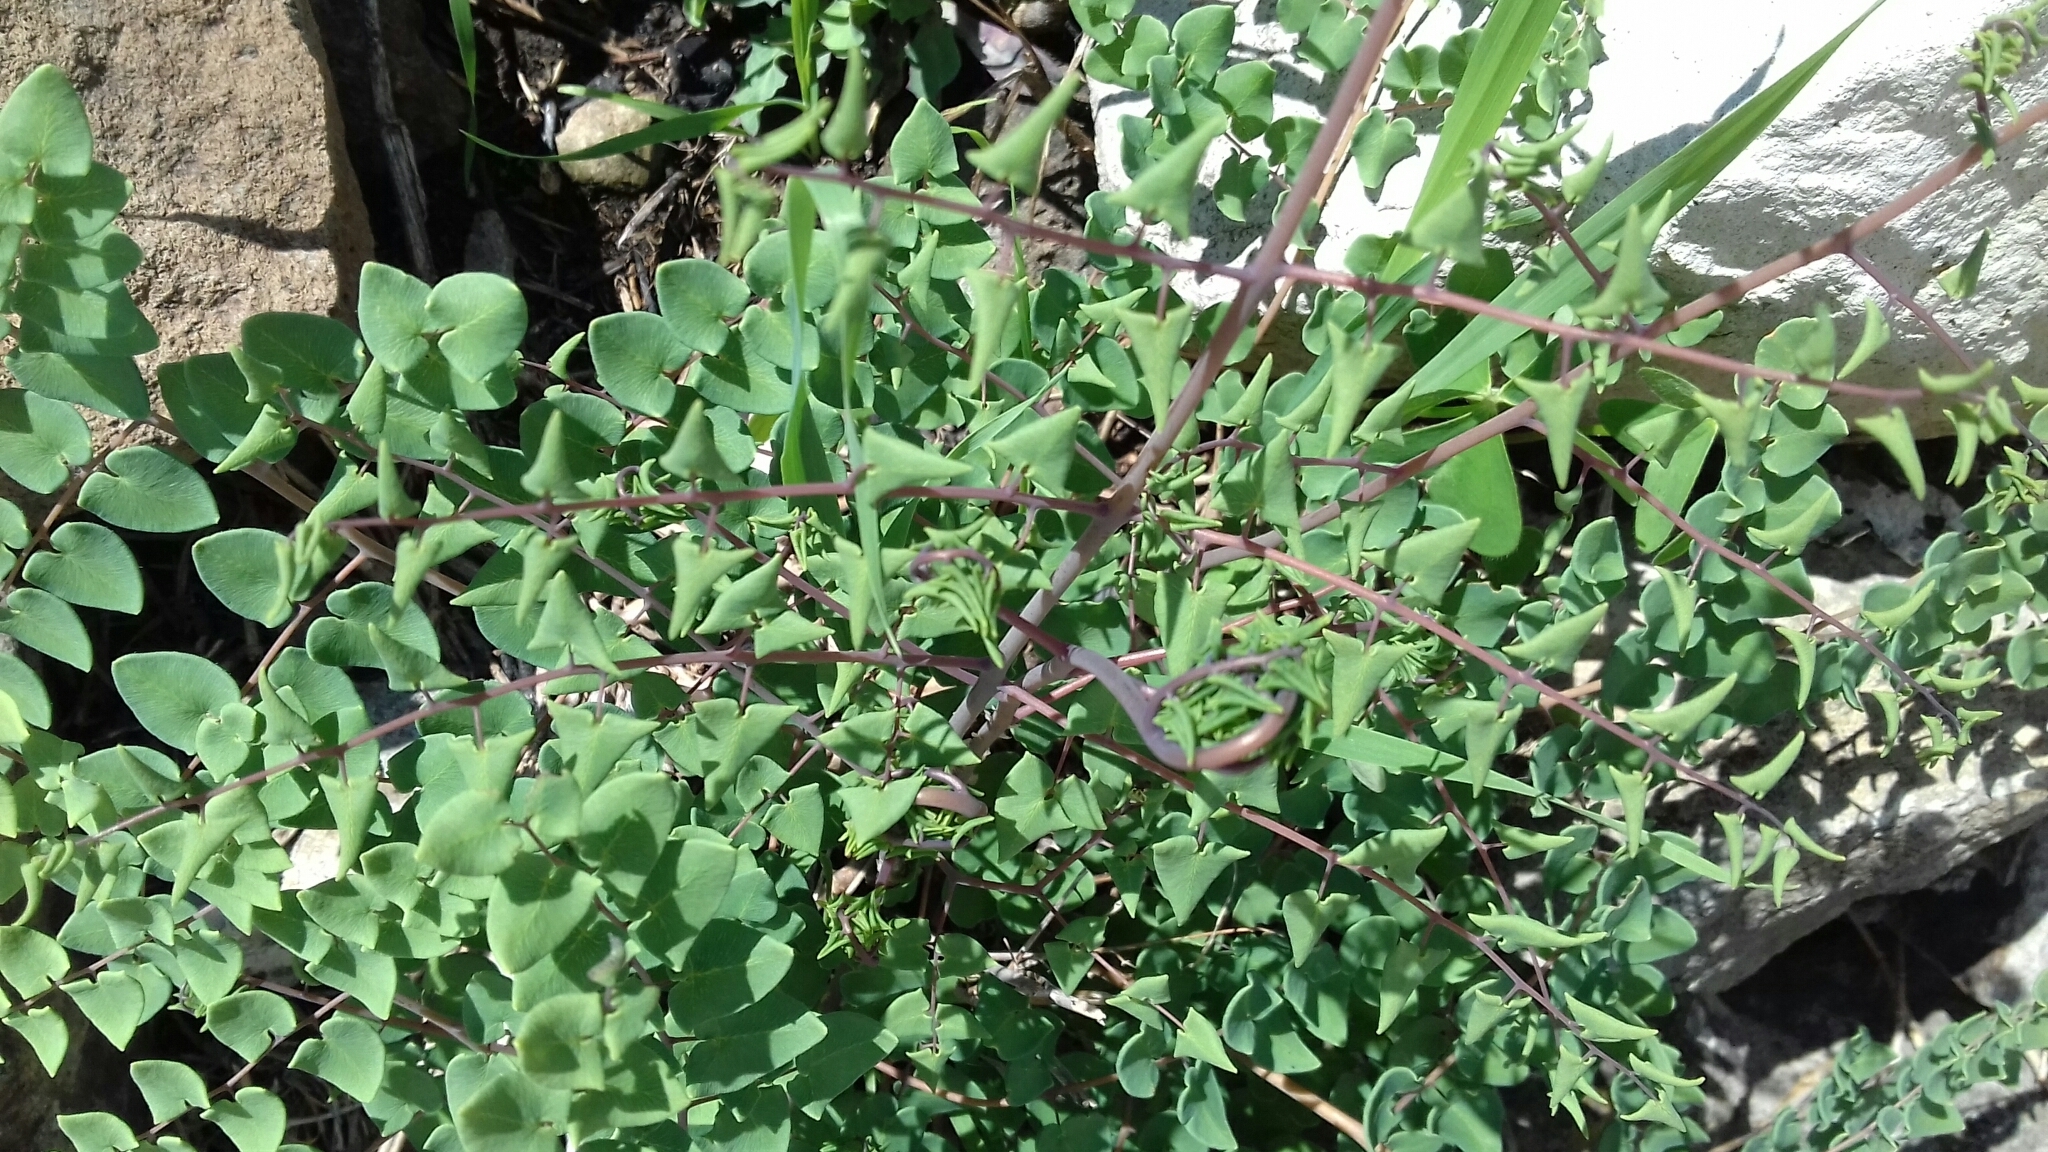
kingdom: Plantae
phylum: Tracheophyta
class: Polypodiopsida
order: Polypodiales
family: Pteridaceae
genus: Pellaea
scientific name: Pellaea cordifolia
